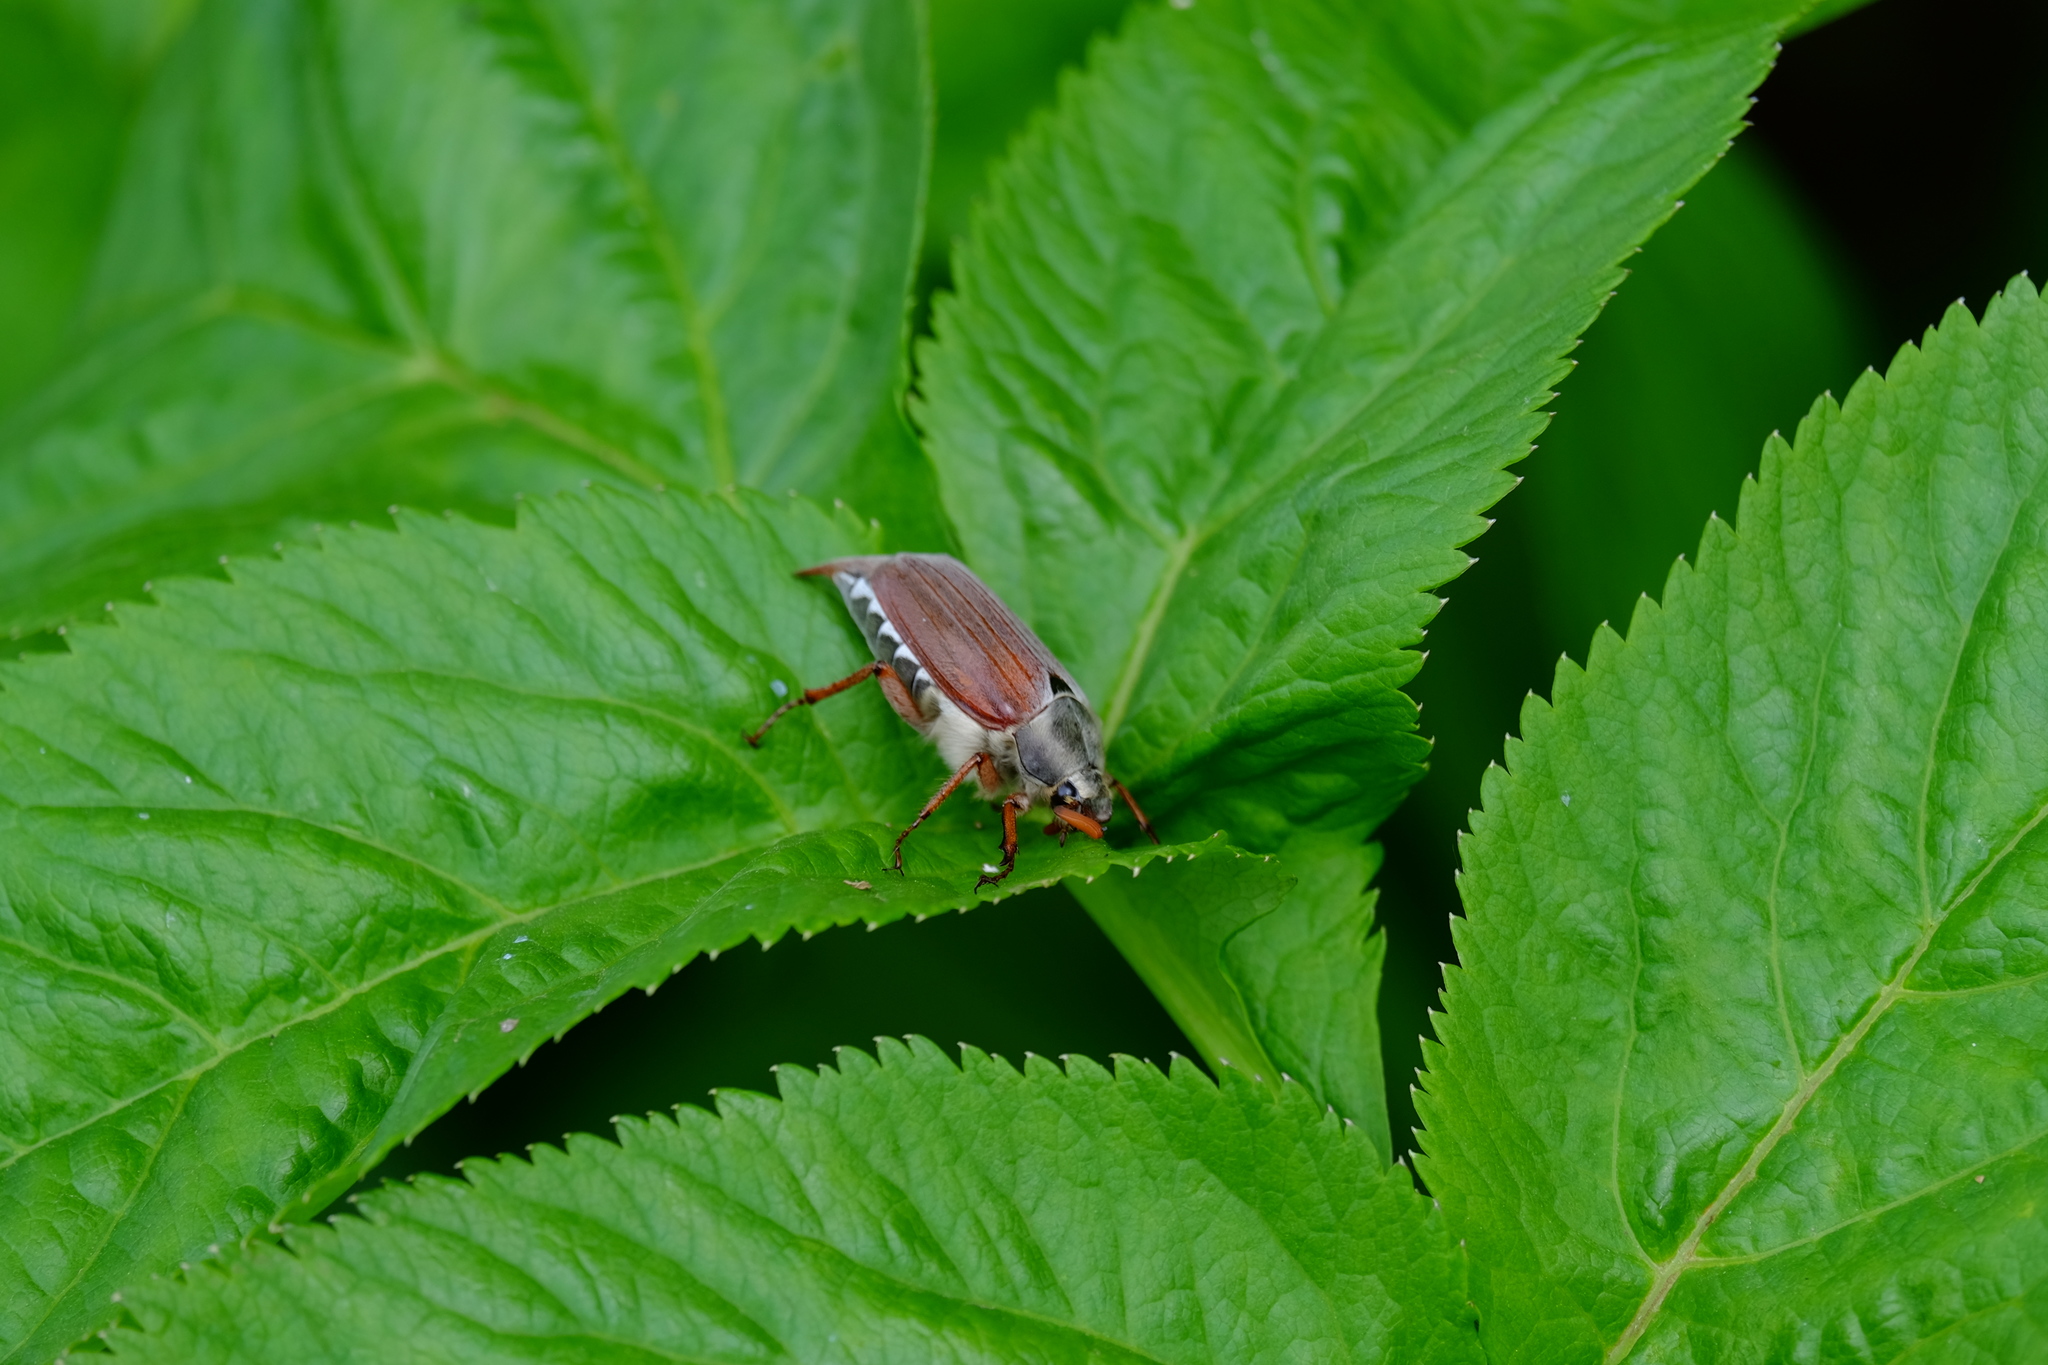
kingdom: Animalia
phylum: Arthropoda
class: Insecta
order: Coleoptera
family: Scarabaeidae
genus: Melolontha
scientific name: Melolontha melolontha
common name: Cockchafer maybeetle
